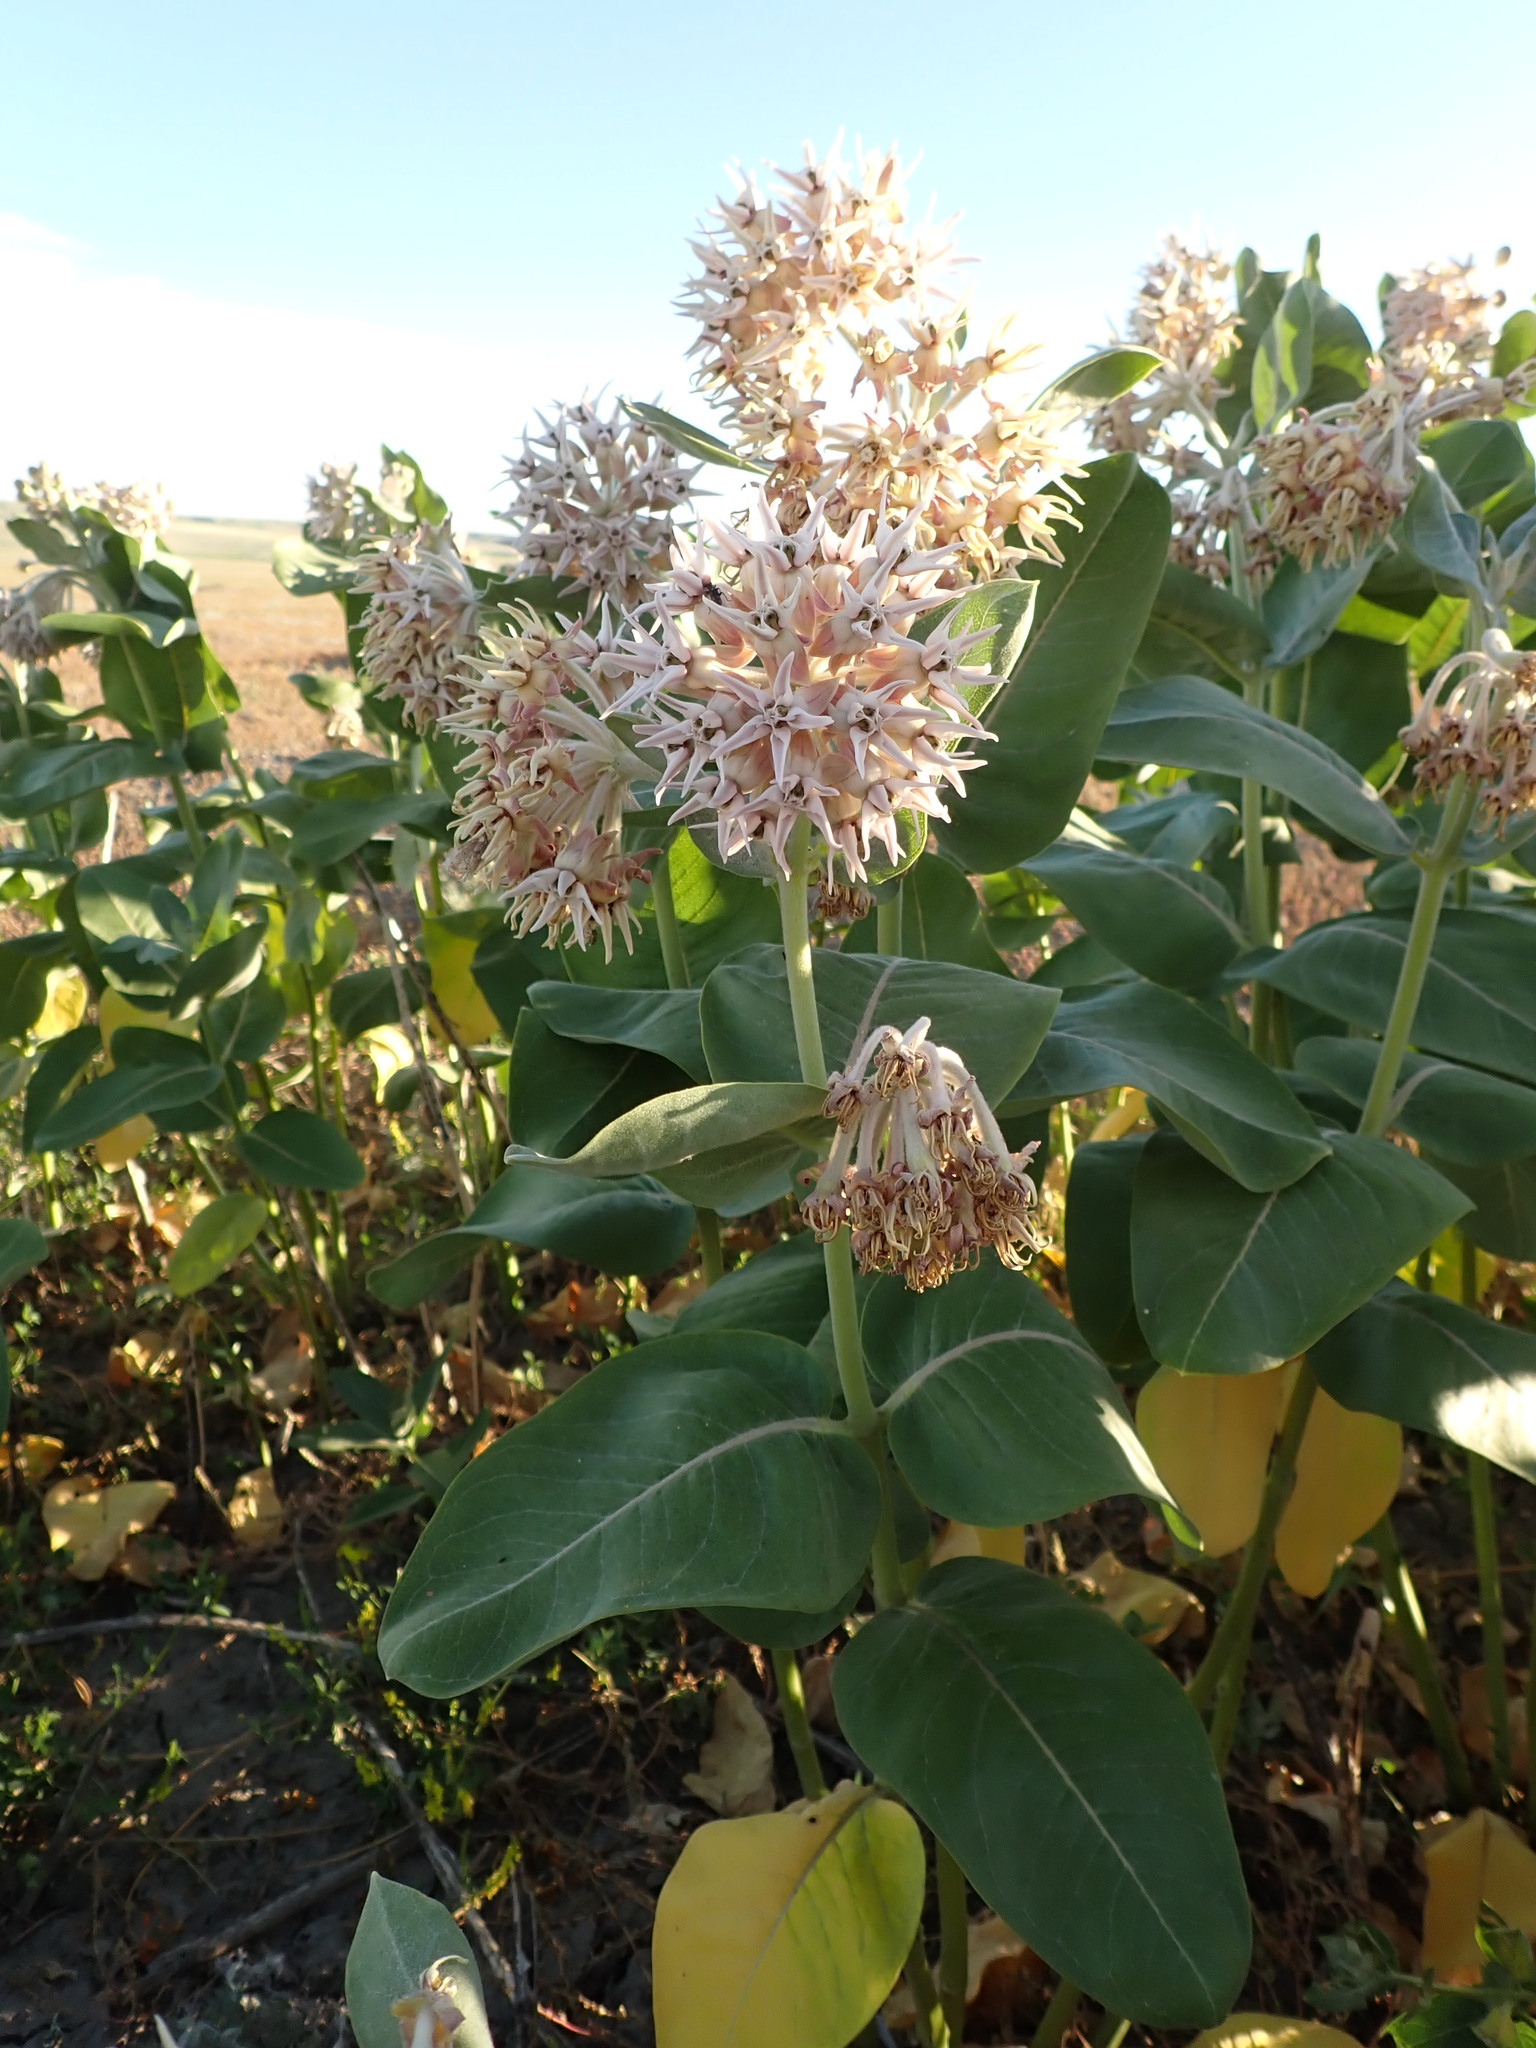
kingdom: Plantae
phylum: Tracheophyta
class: Magnoliopsida
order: Gentianales
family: Apocynaceae
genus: Asclepias
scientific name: Asclepias speciosa
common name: Showy milkweed
